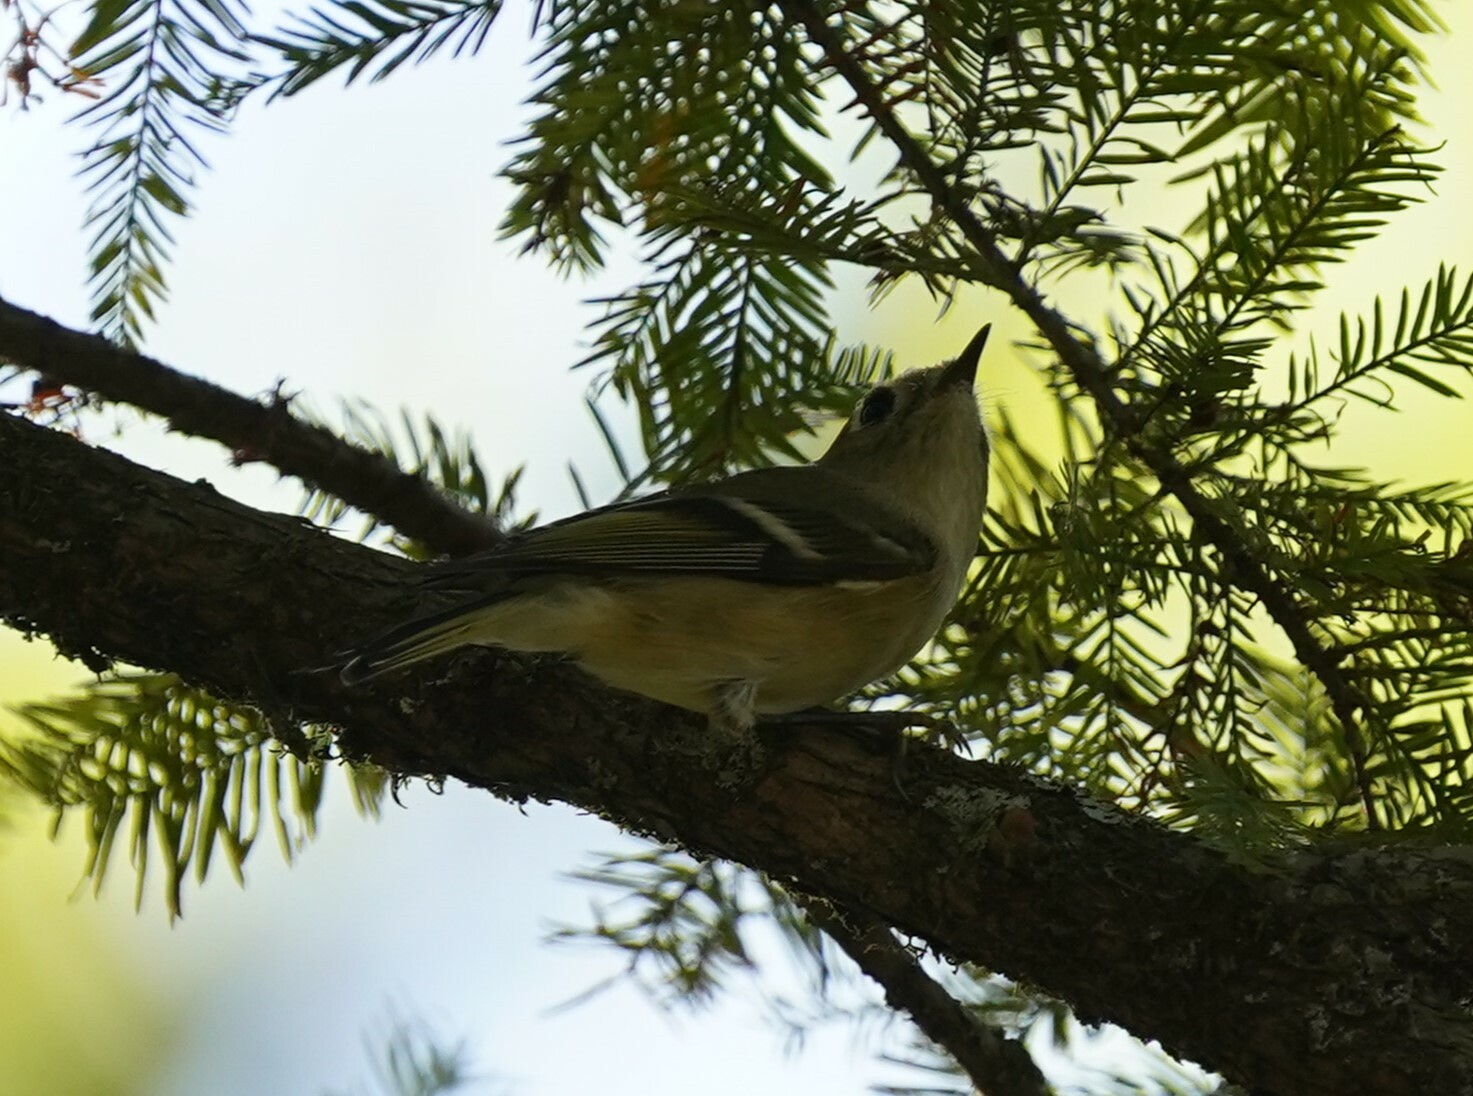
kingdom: Animalia
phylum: Chordata
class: Aves
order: Passeriformes
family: Regulidae
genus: Regulus
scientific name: Regulus calendula
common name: Ruby-crowned kinglet
